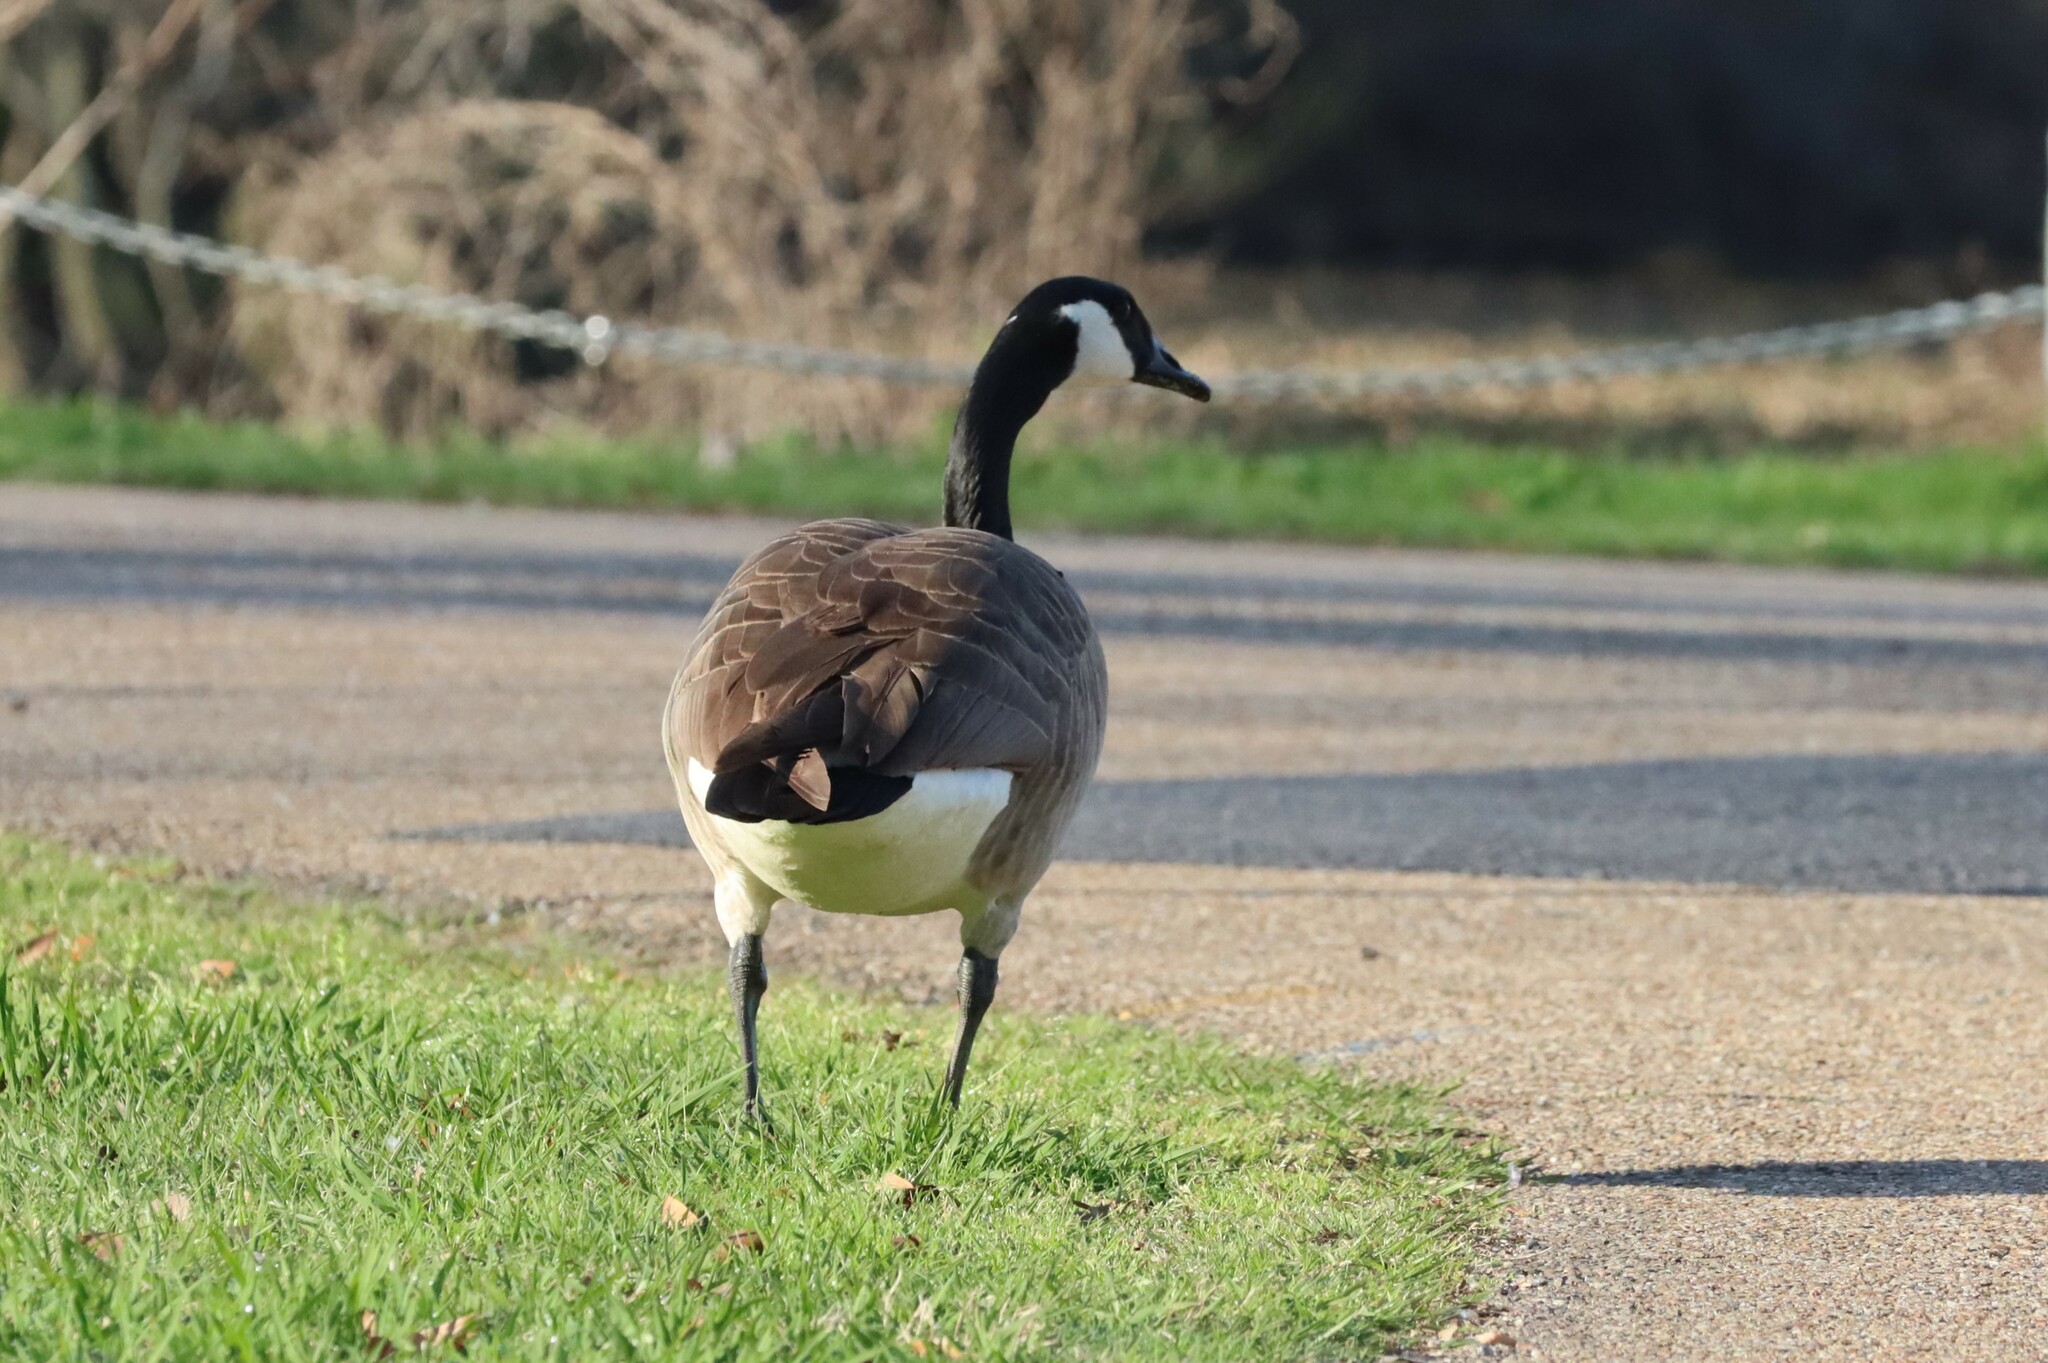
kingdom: Animalia
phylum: Chordata
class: Aves
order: Anseriformes
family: Anatidae
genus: Branta
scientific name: Branta canadensis
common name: Canada goose
